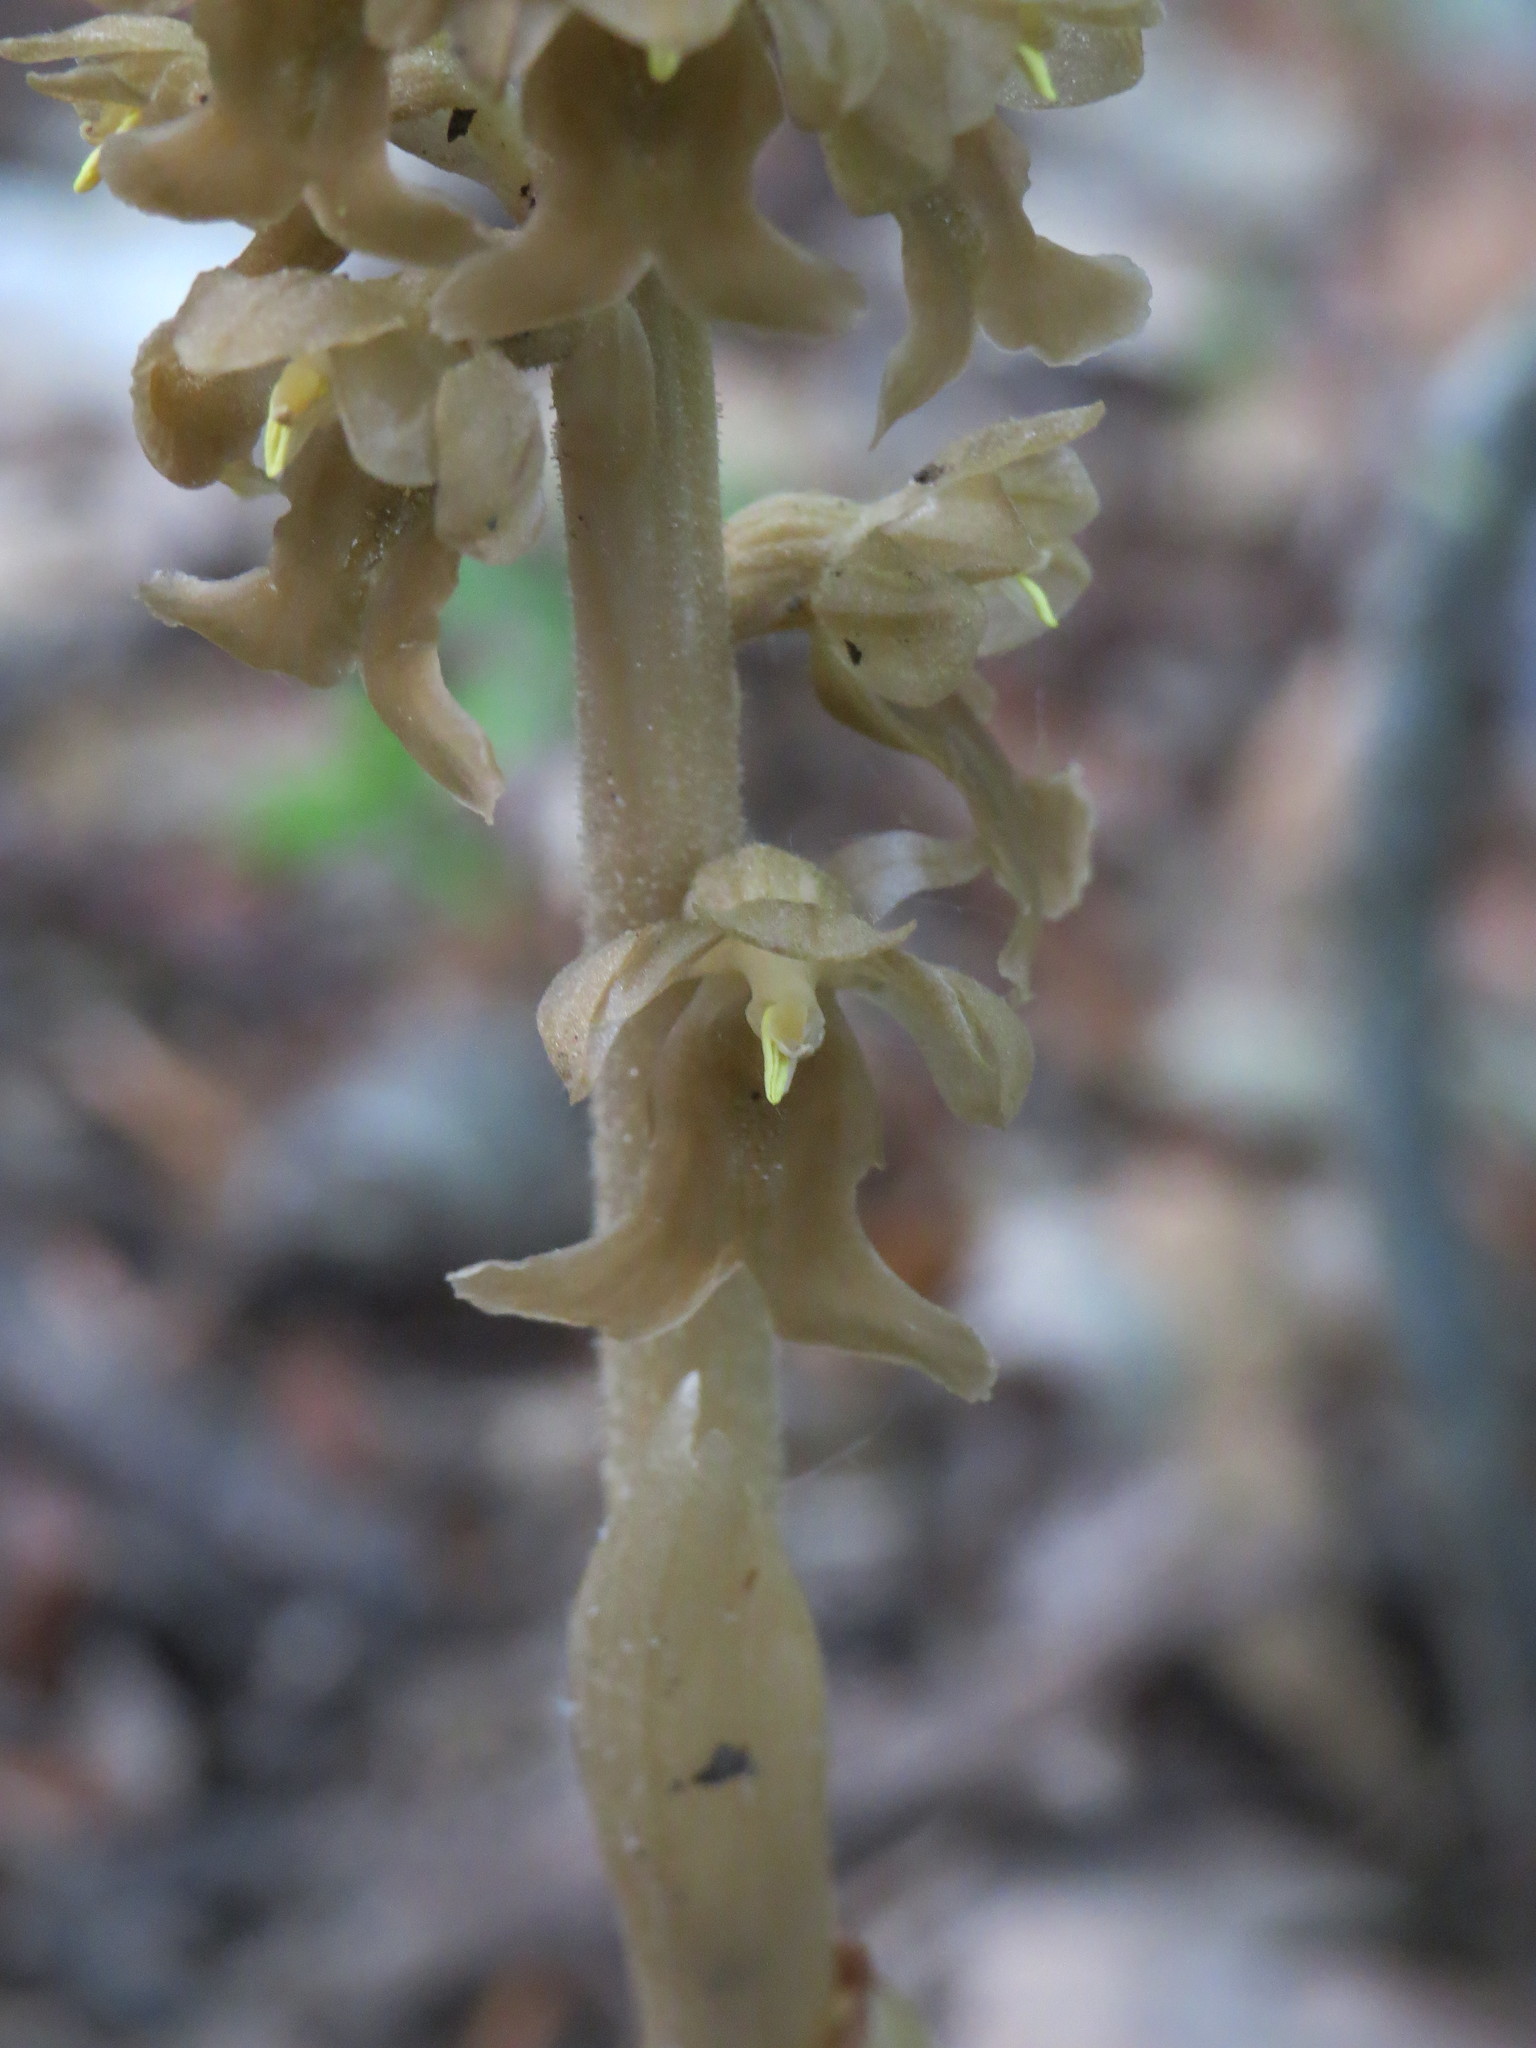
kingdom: Plantae
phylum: Tracheophyta
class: Liliopsida
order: Asparagales
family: Orchidaceae
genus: Neottia
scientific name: Neottia nidus-avis
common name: Bird's-nest orchid
